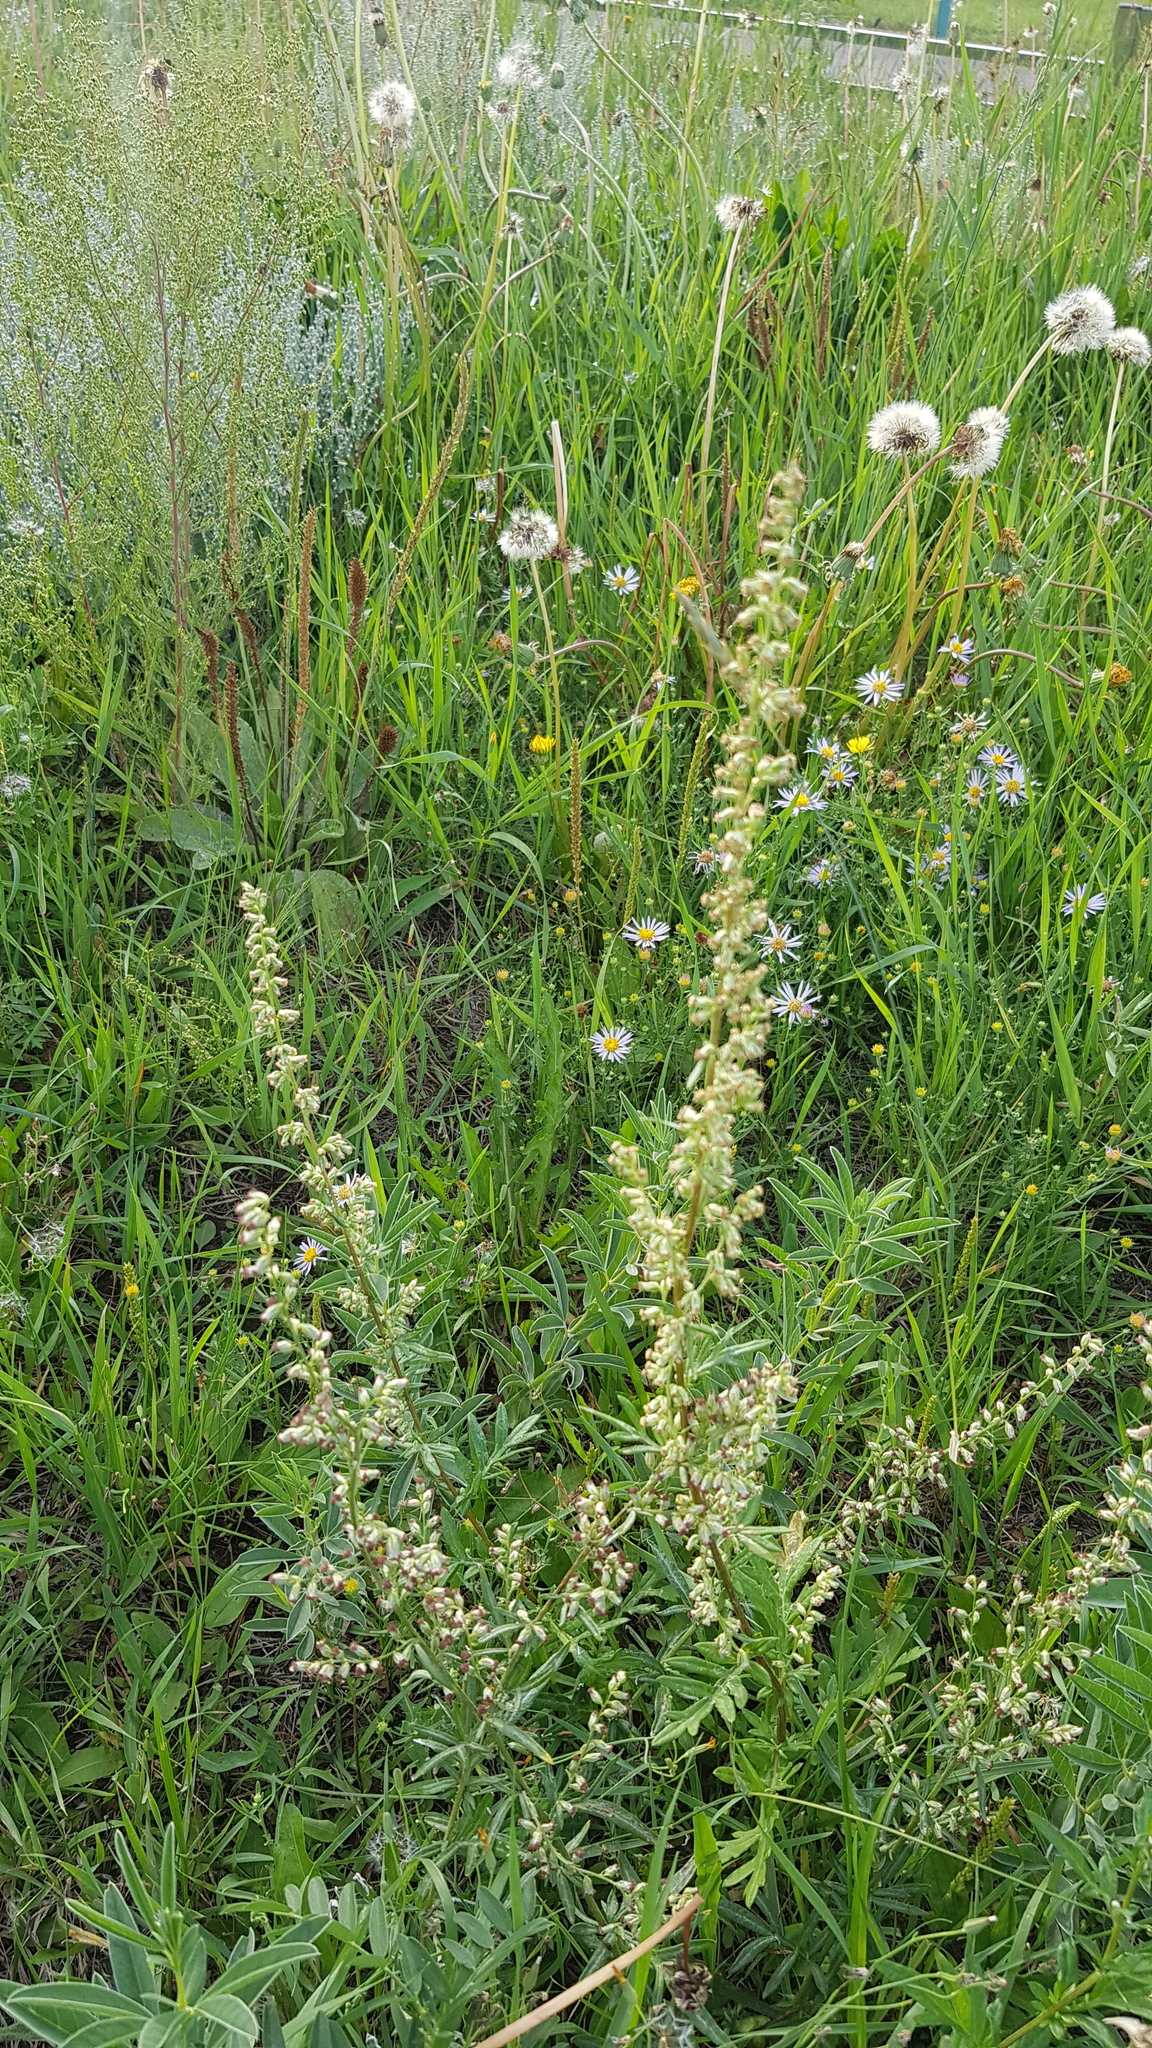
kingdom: Plantae
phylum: Tracheophyta
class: Magnoliopsida
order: Asterales
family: Asteraceae
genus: Artemisia
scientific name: Artemisia vulgaris
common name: Mugwort
